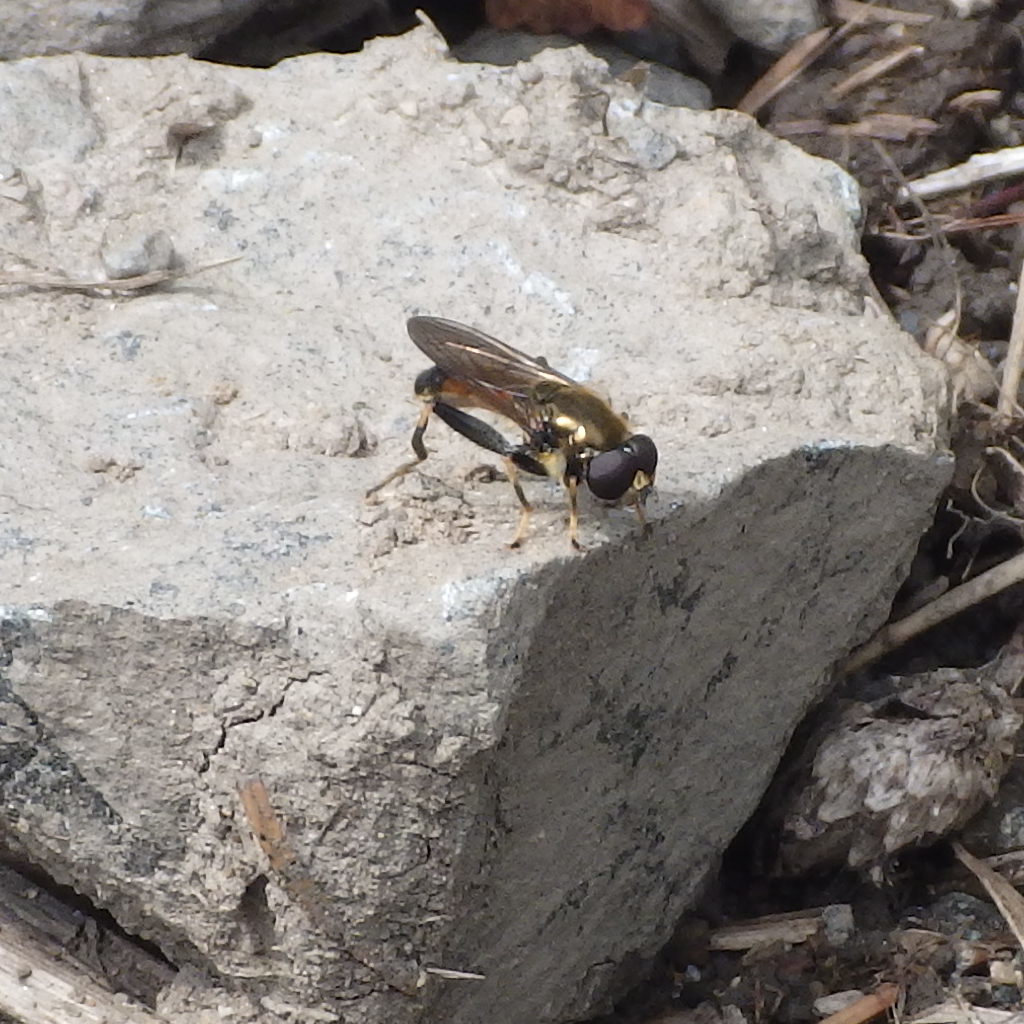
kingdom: Animalia
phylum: Arthropoda
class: Insecta
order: Diptera
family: Syrphidae
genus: Xylota
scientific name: Xylota segnis
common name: Brown-toed forest fly
